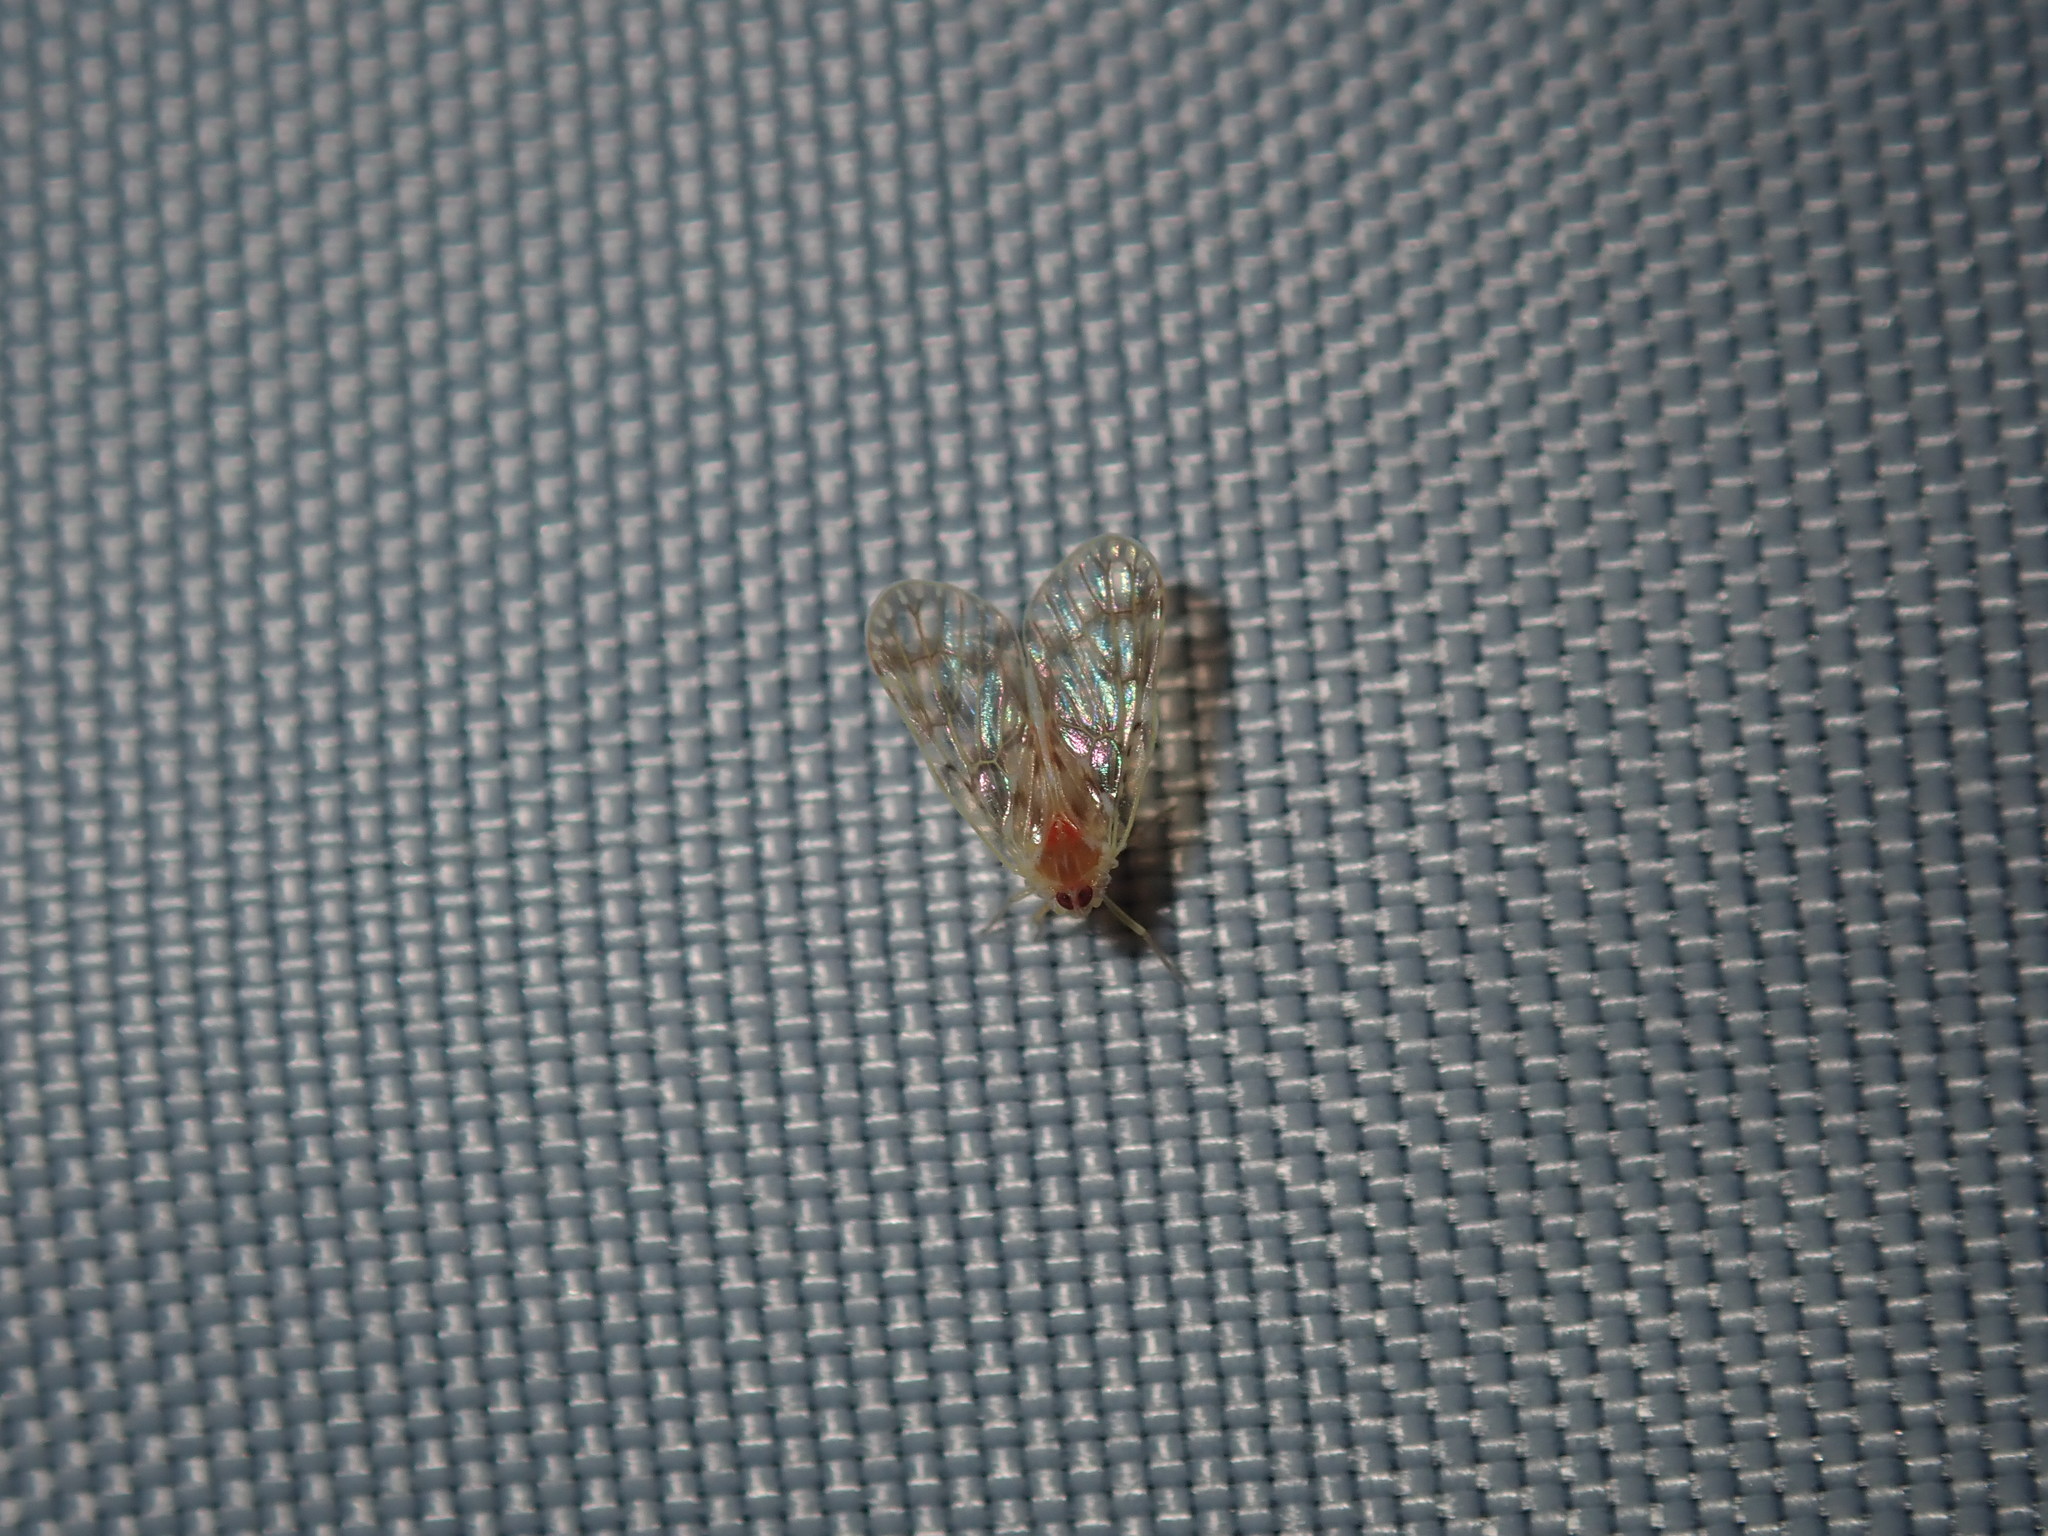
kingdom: Animalia
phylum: Arthropoda
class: Insecta
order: Hemiptera
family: Derbidae
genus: Saccharodite
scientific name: Saccharodite chrysonoe
